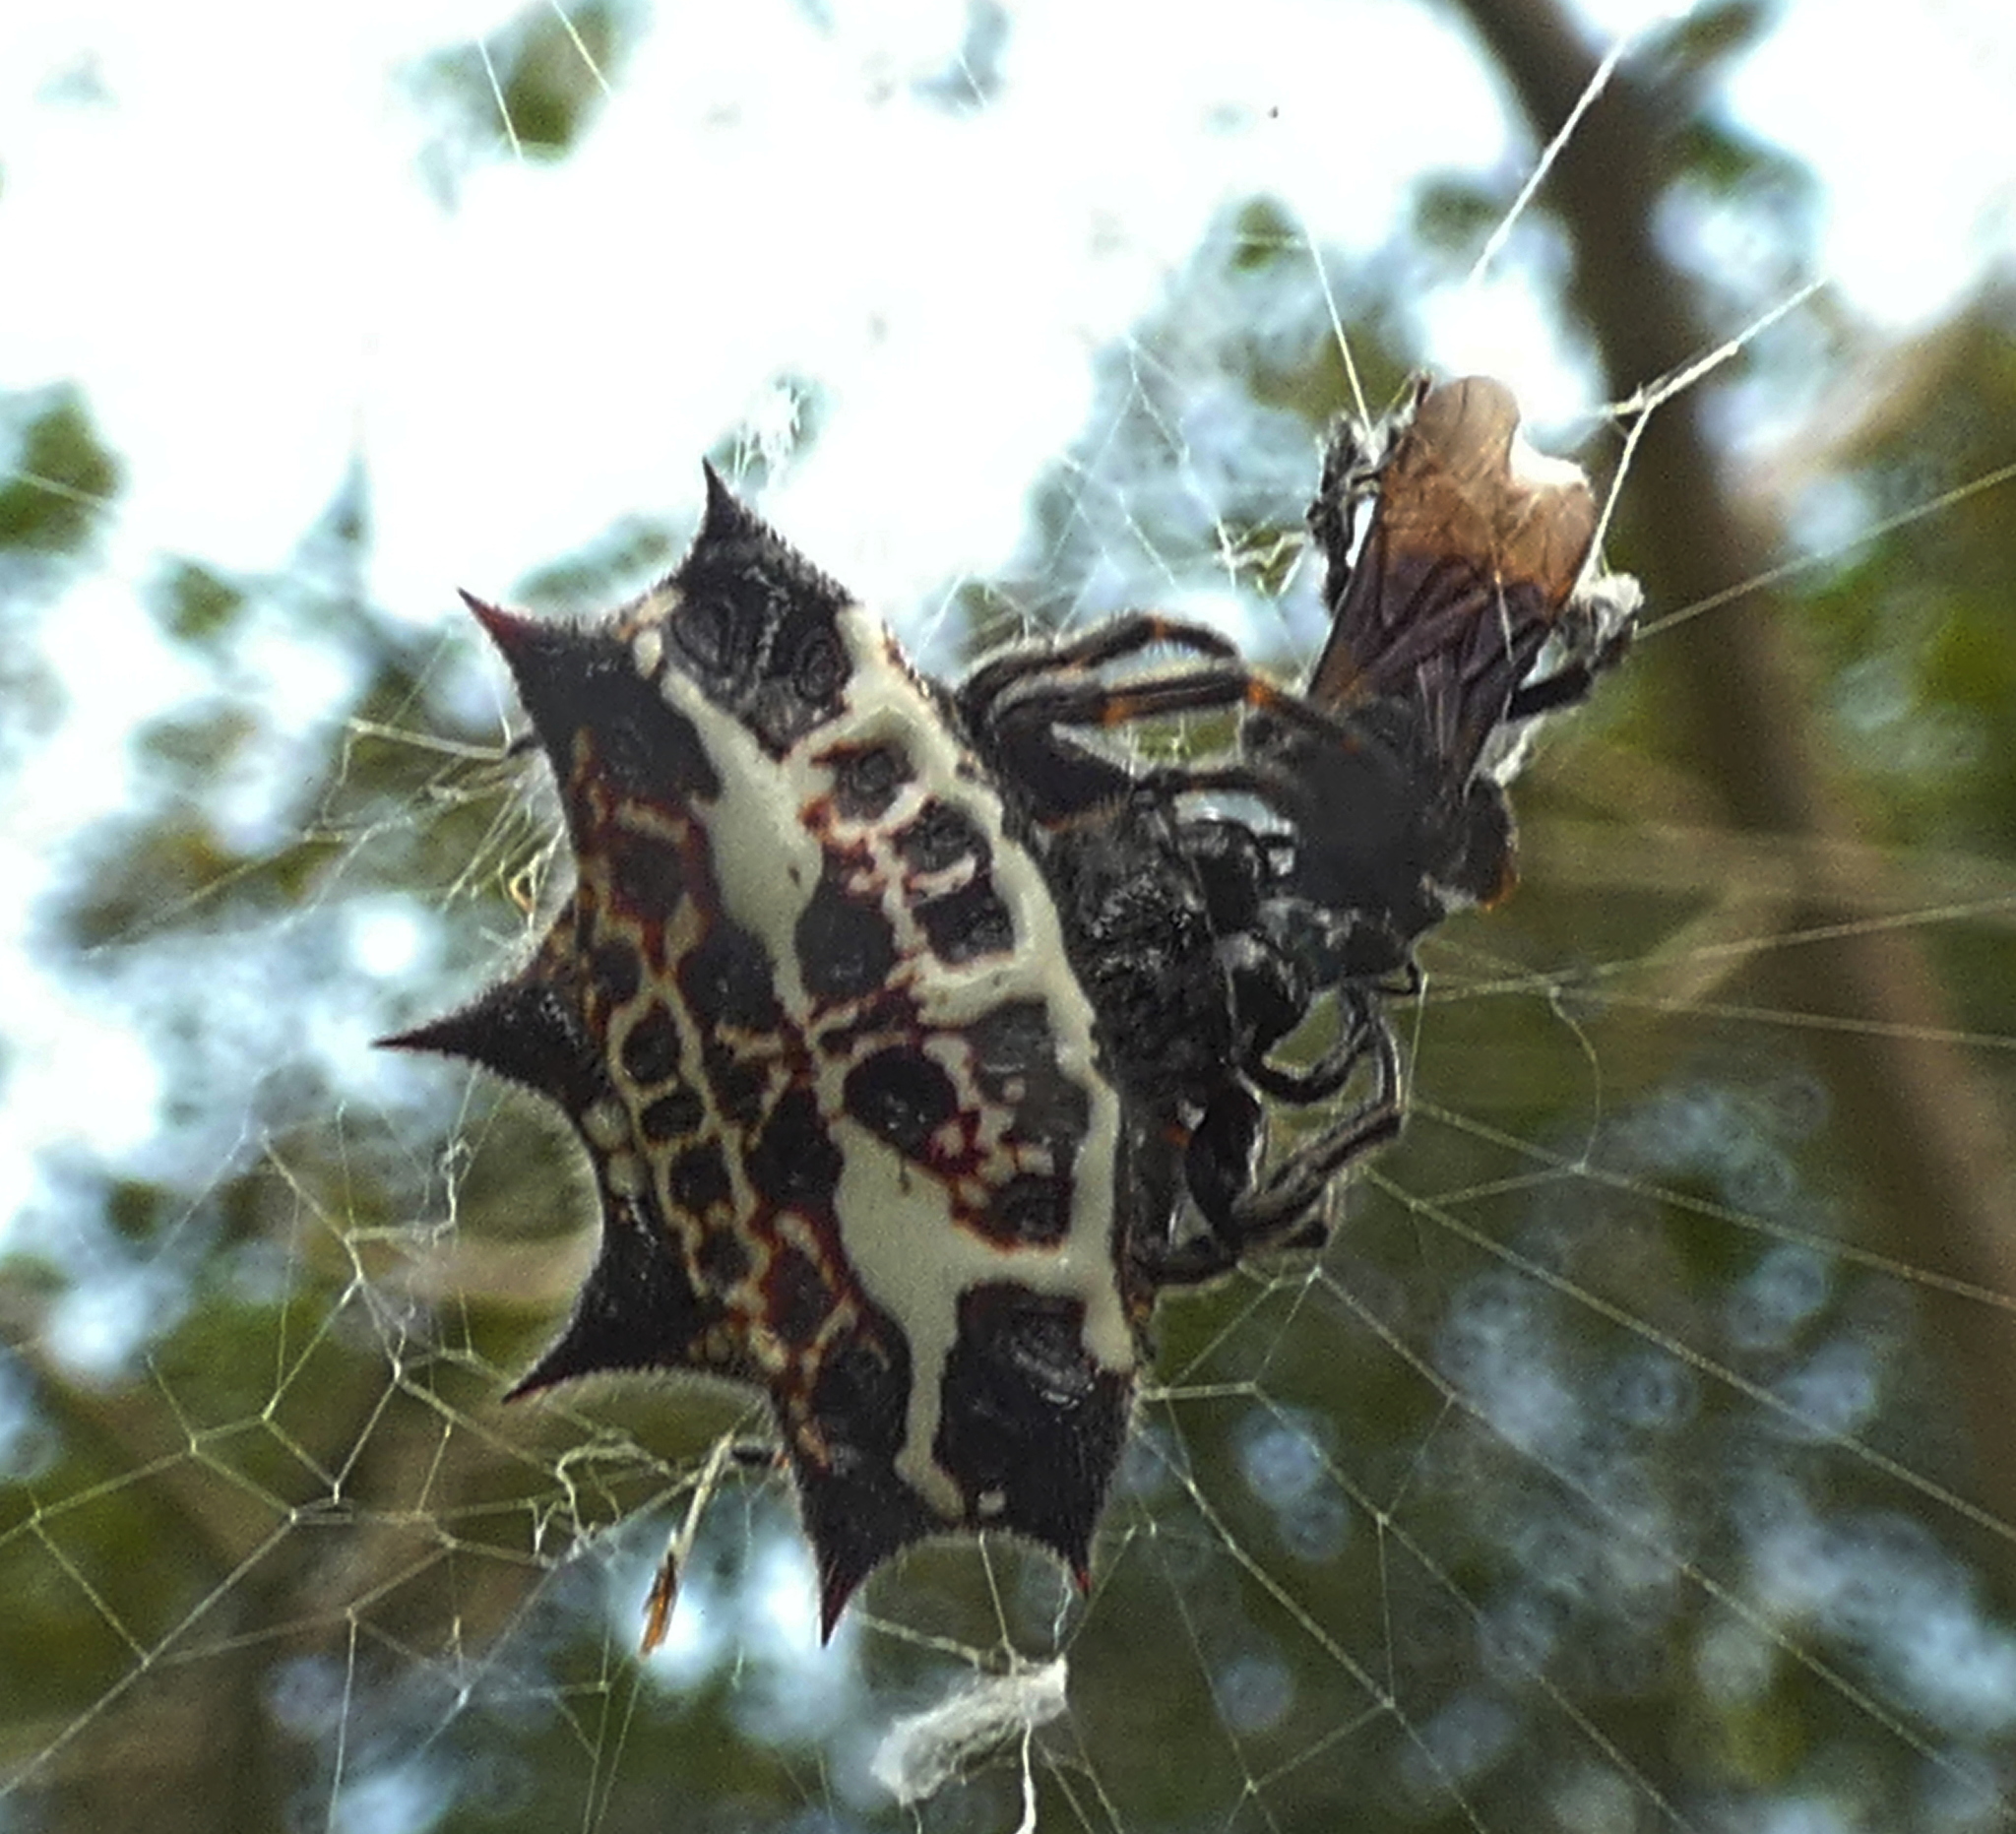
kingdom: Animalia
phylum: Arthropoda
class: Arachnida
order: Araneae
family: Araneidae
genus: Gasteracantha
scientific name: Gasteracantha cancriformis
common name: Orb weavers
